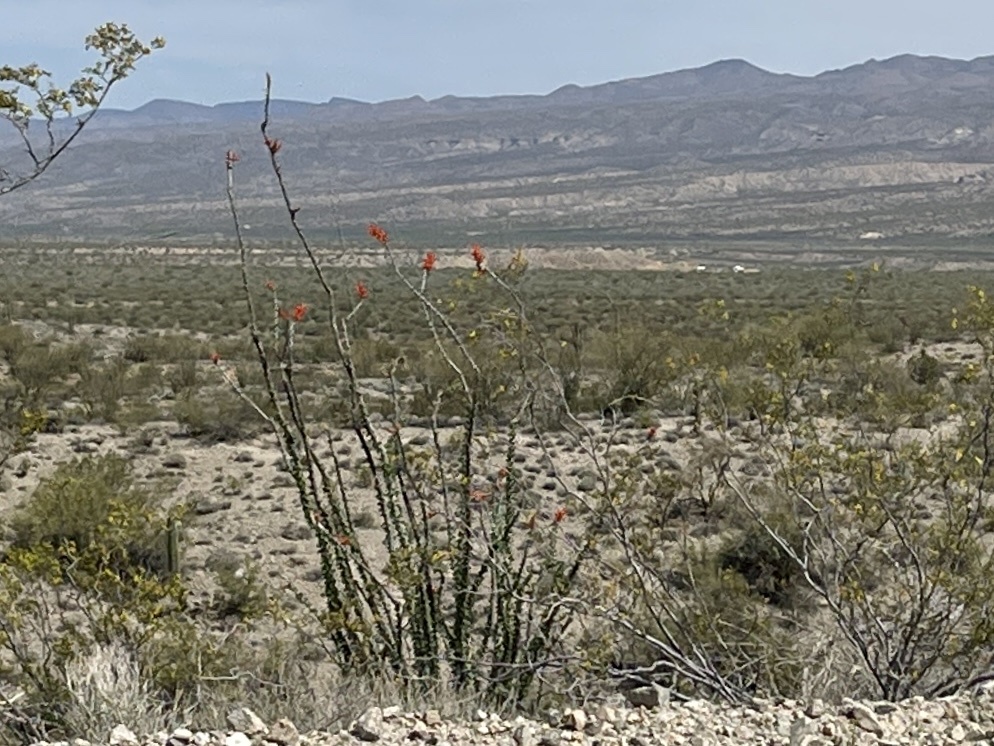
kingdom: Plantae
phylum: Tracheophyta
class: Magnoliopsida
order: Ericales
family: Fouquieriaceae
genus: Fouquieria
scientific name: Fouquieria splendens
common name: Vine-cactus
